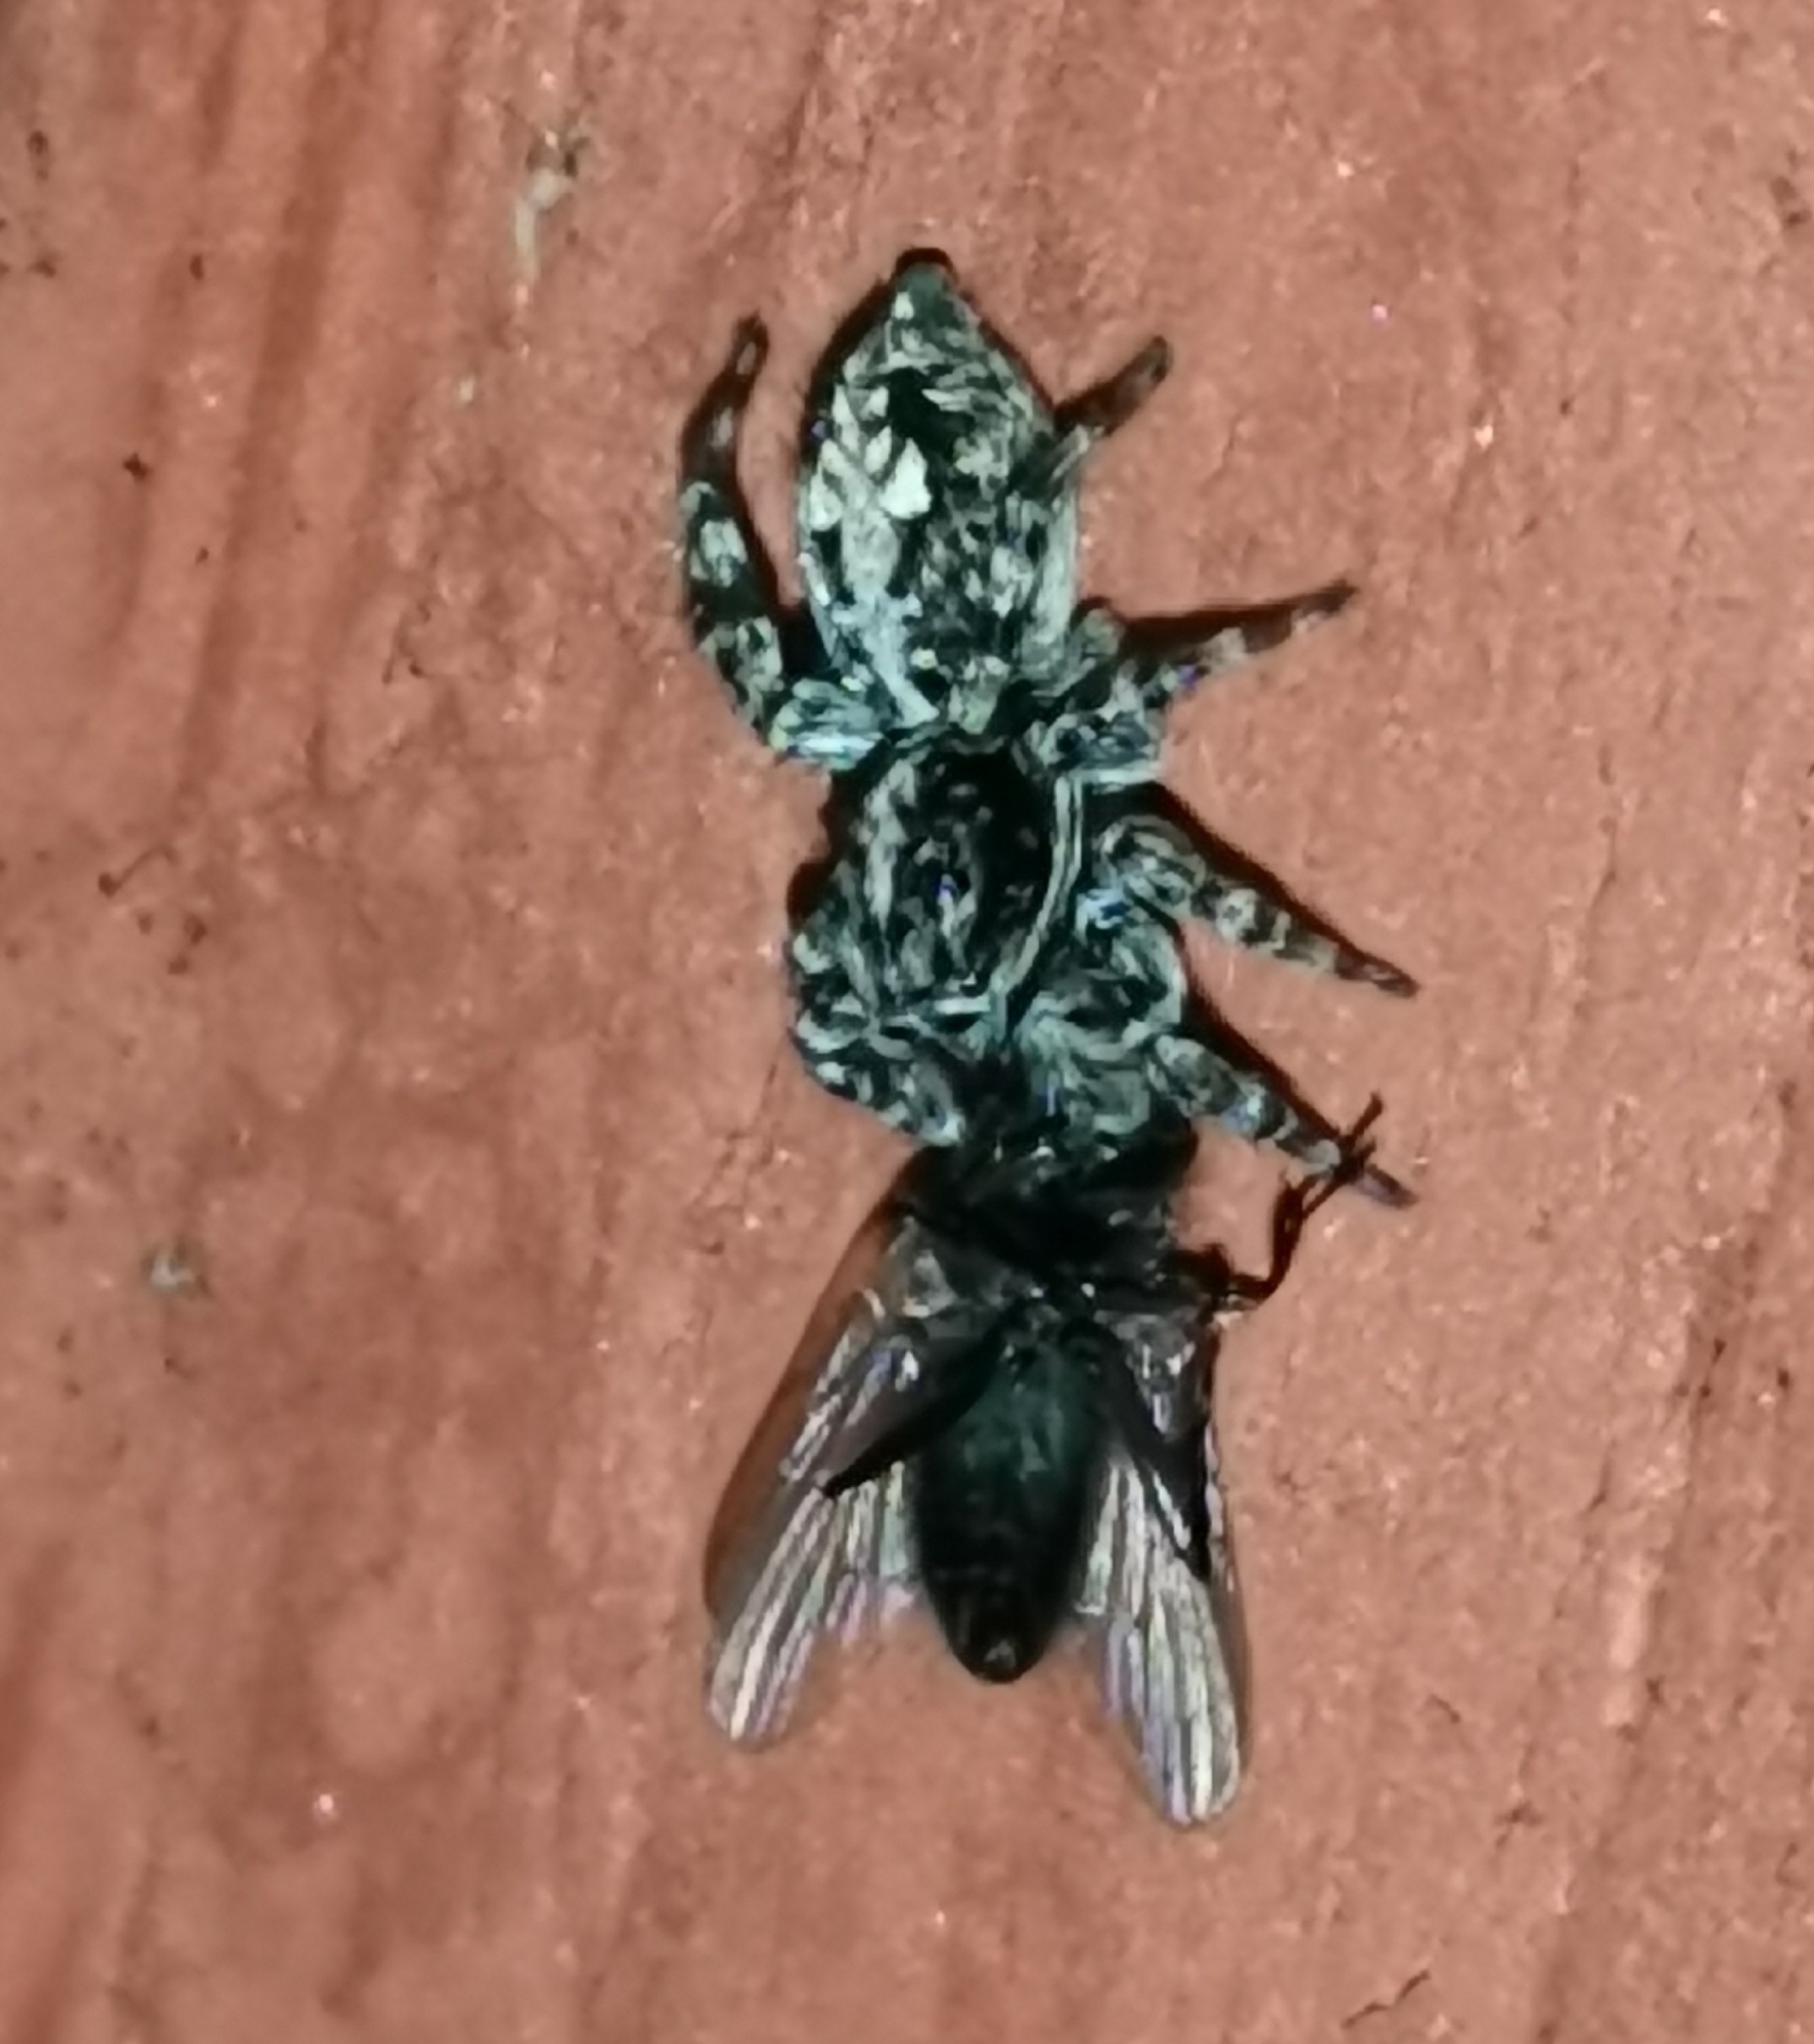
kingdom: Animalia
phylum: Arthropoda
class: Arachnida
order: Araneae
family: Salticidae
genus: Attulus
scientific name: Attulus terebratus
